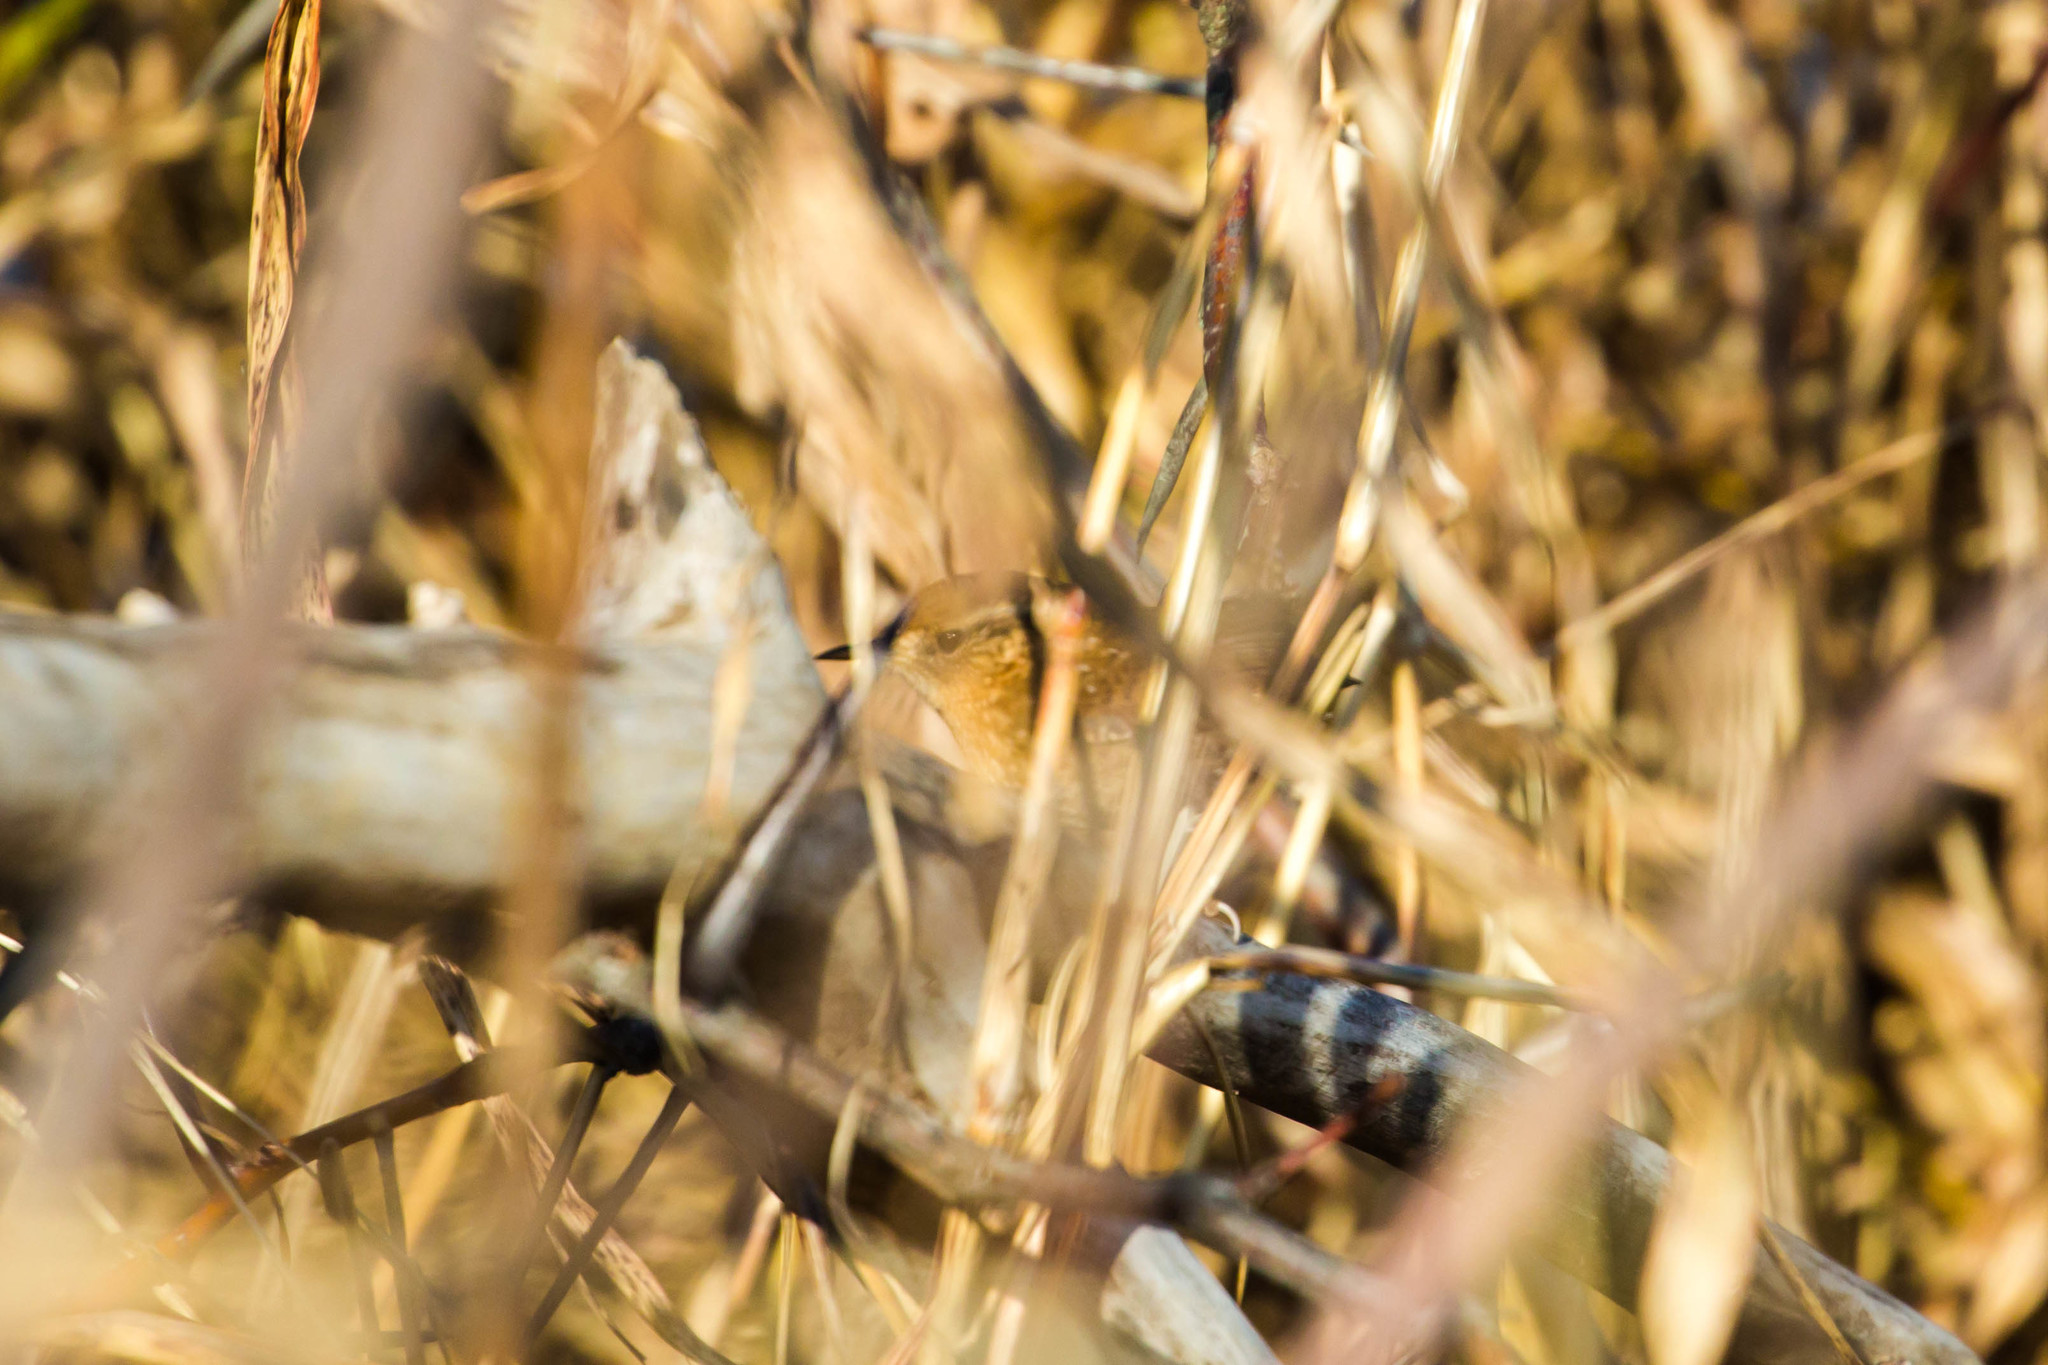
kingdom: Animalia
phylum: Chordata
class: Aves
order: Passeriformes
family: Troglodytidae
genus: Cistothorus
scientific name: Cistothorus platensis
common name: Sedge wren
